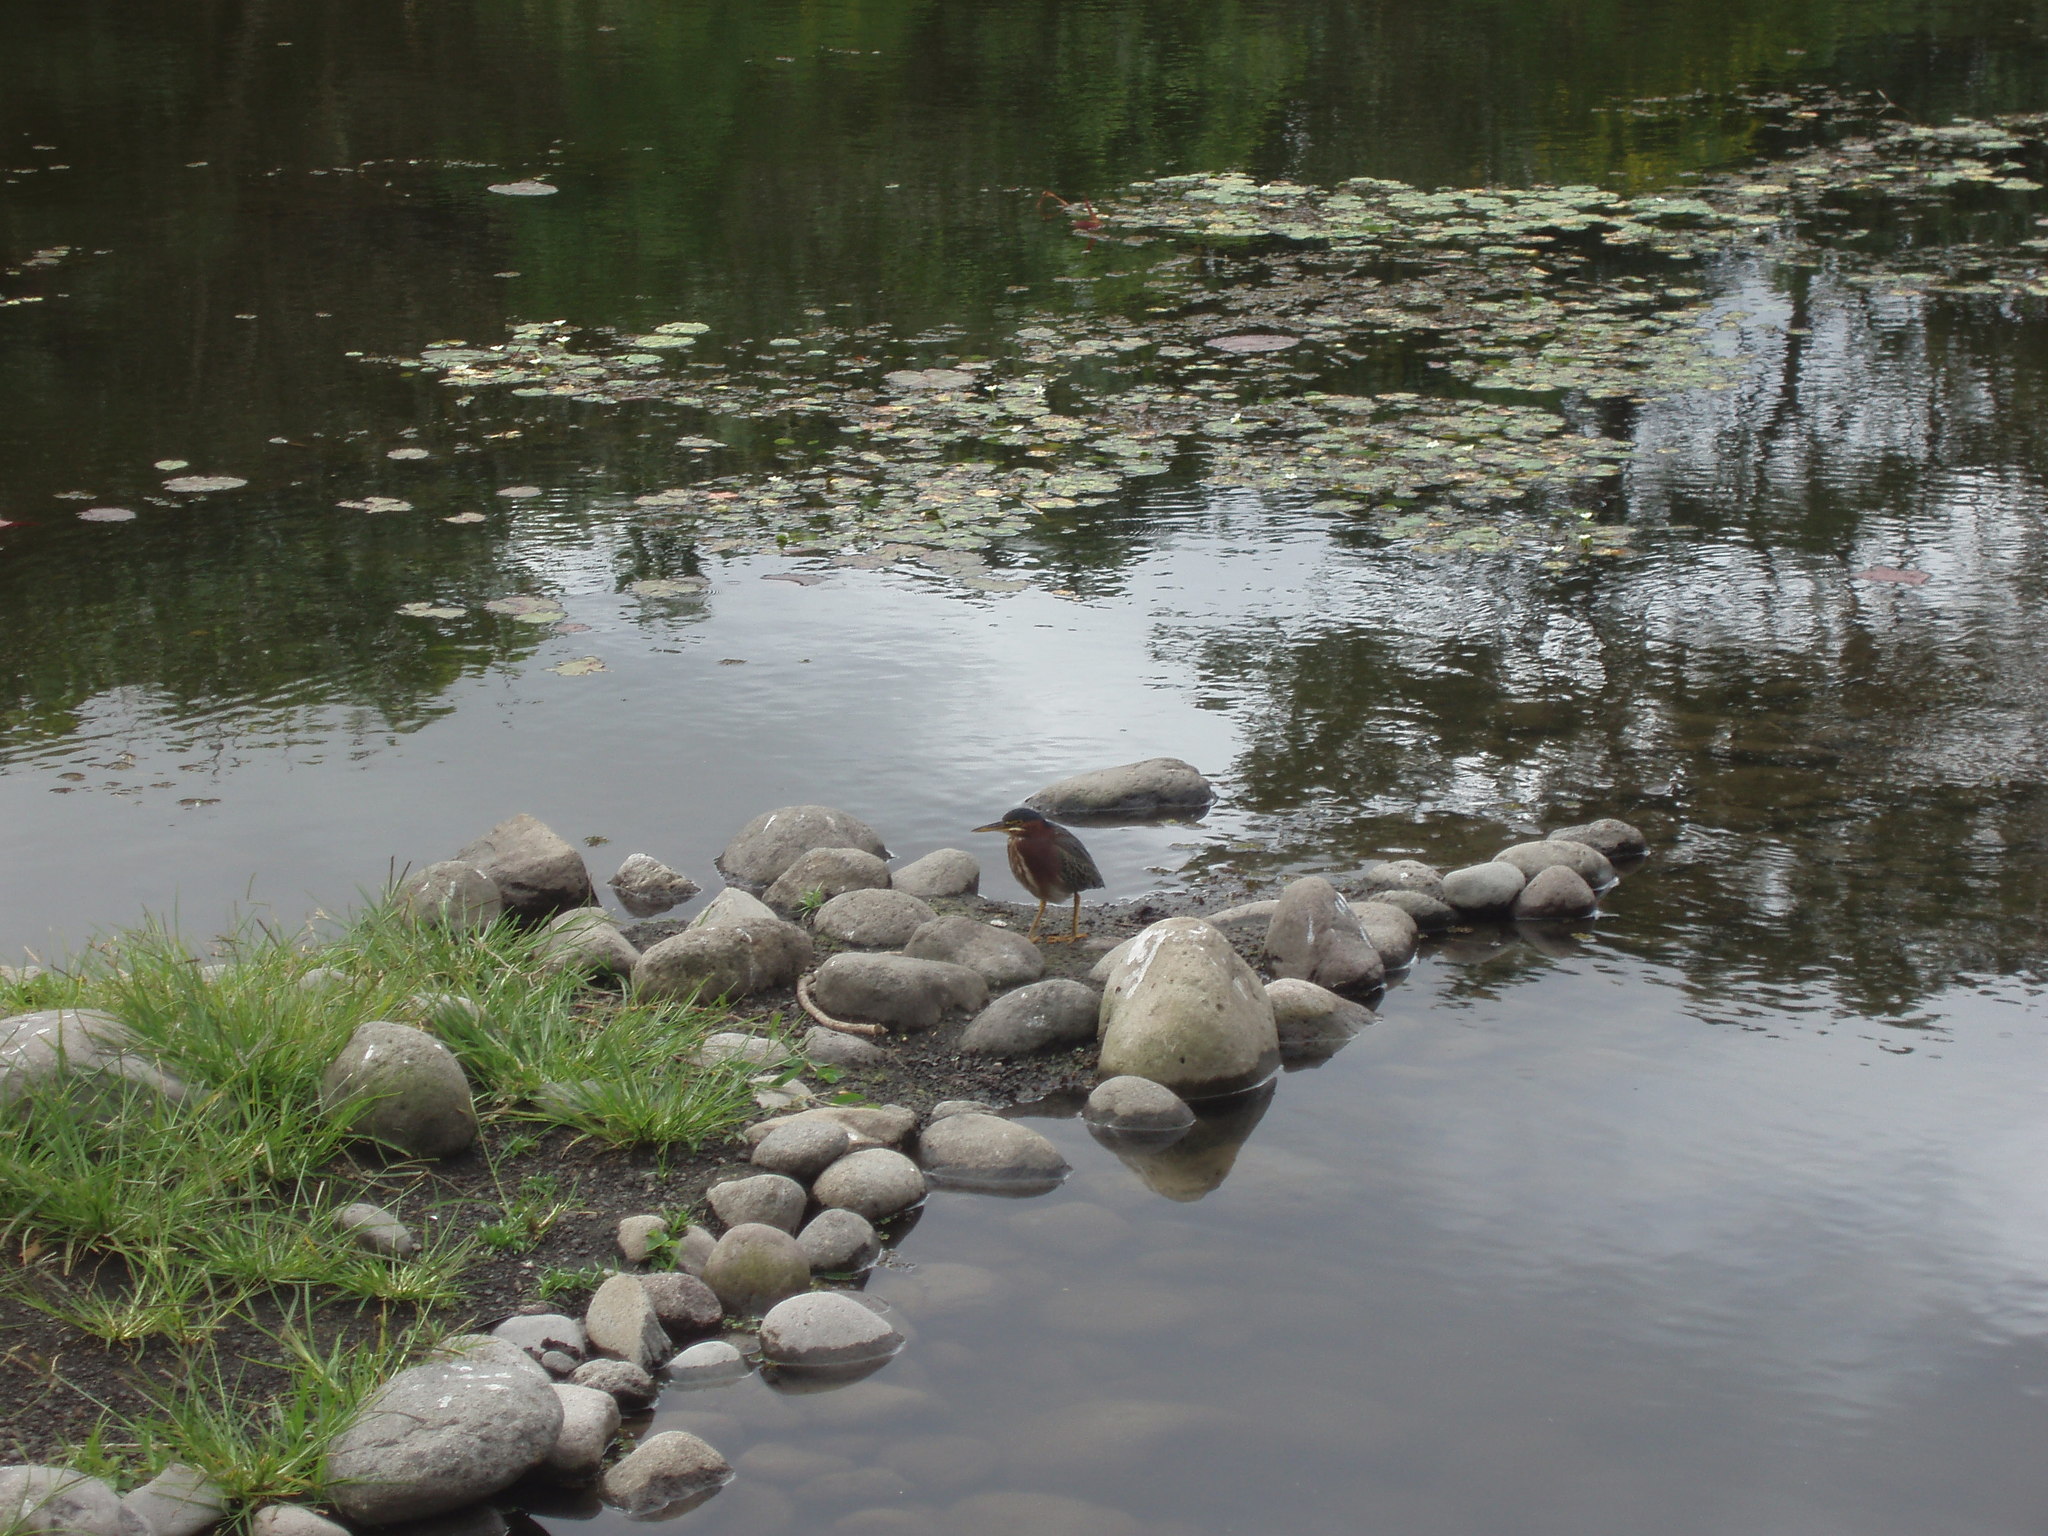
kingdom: Animalia
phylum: Chordata
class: Aves
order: Pelecaniformes
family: Ardeidae
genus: Butorides
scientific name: Butorides virescens
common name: Green heron
